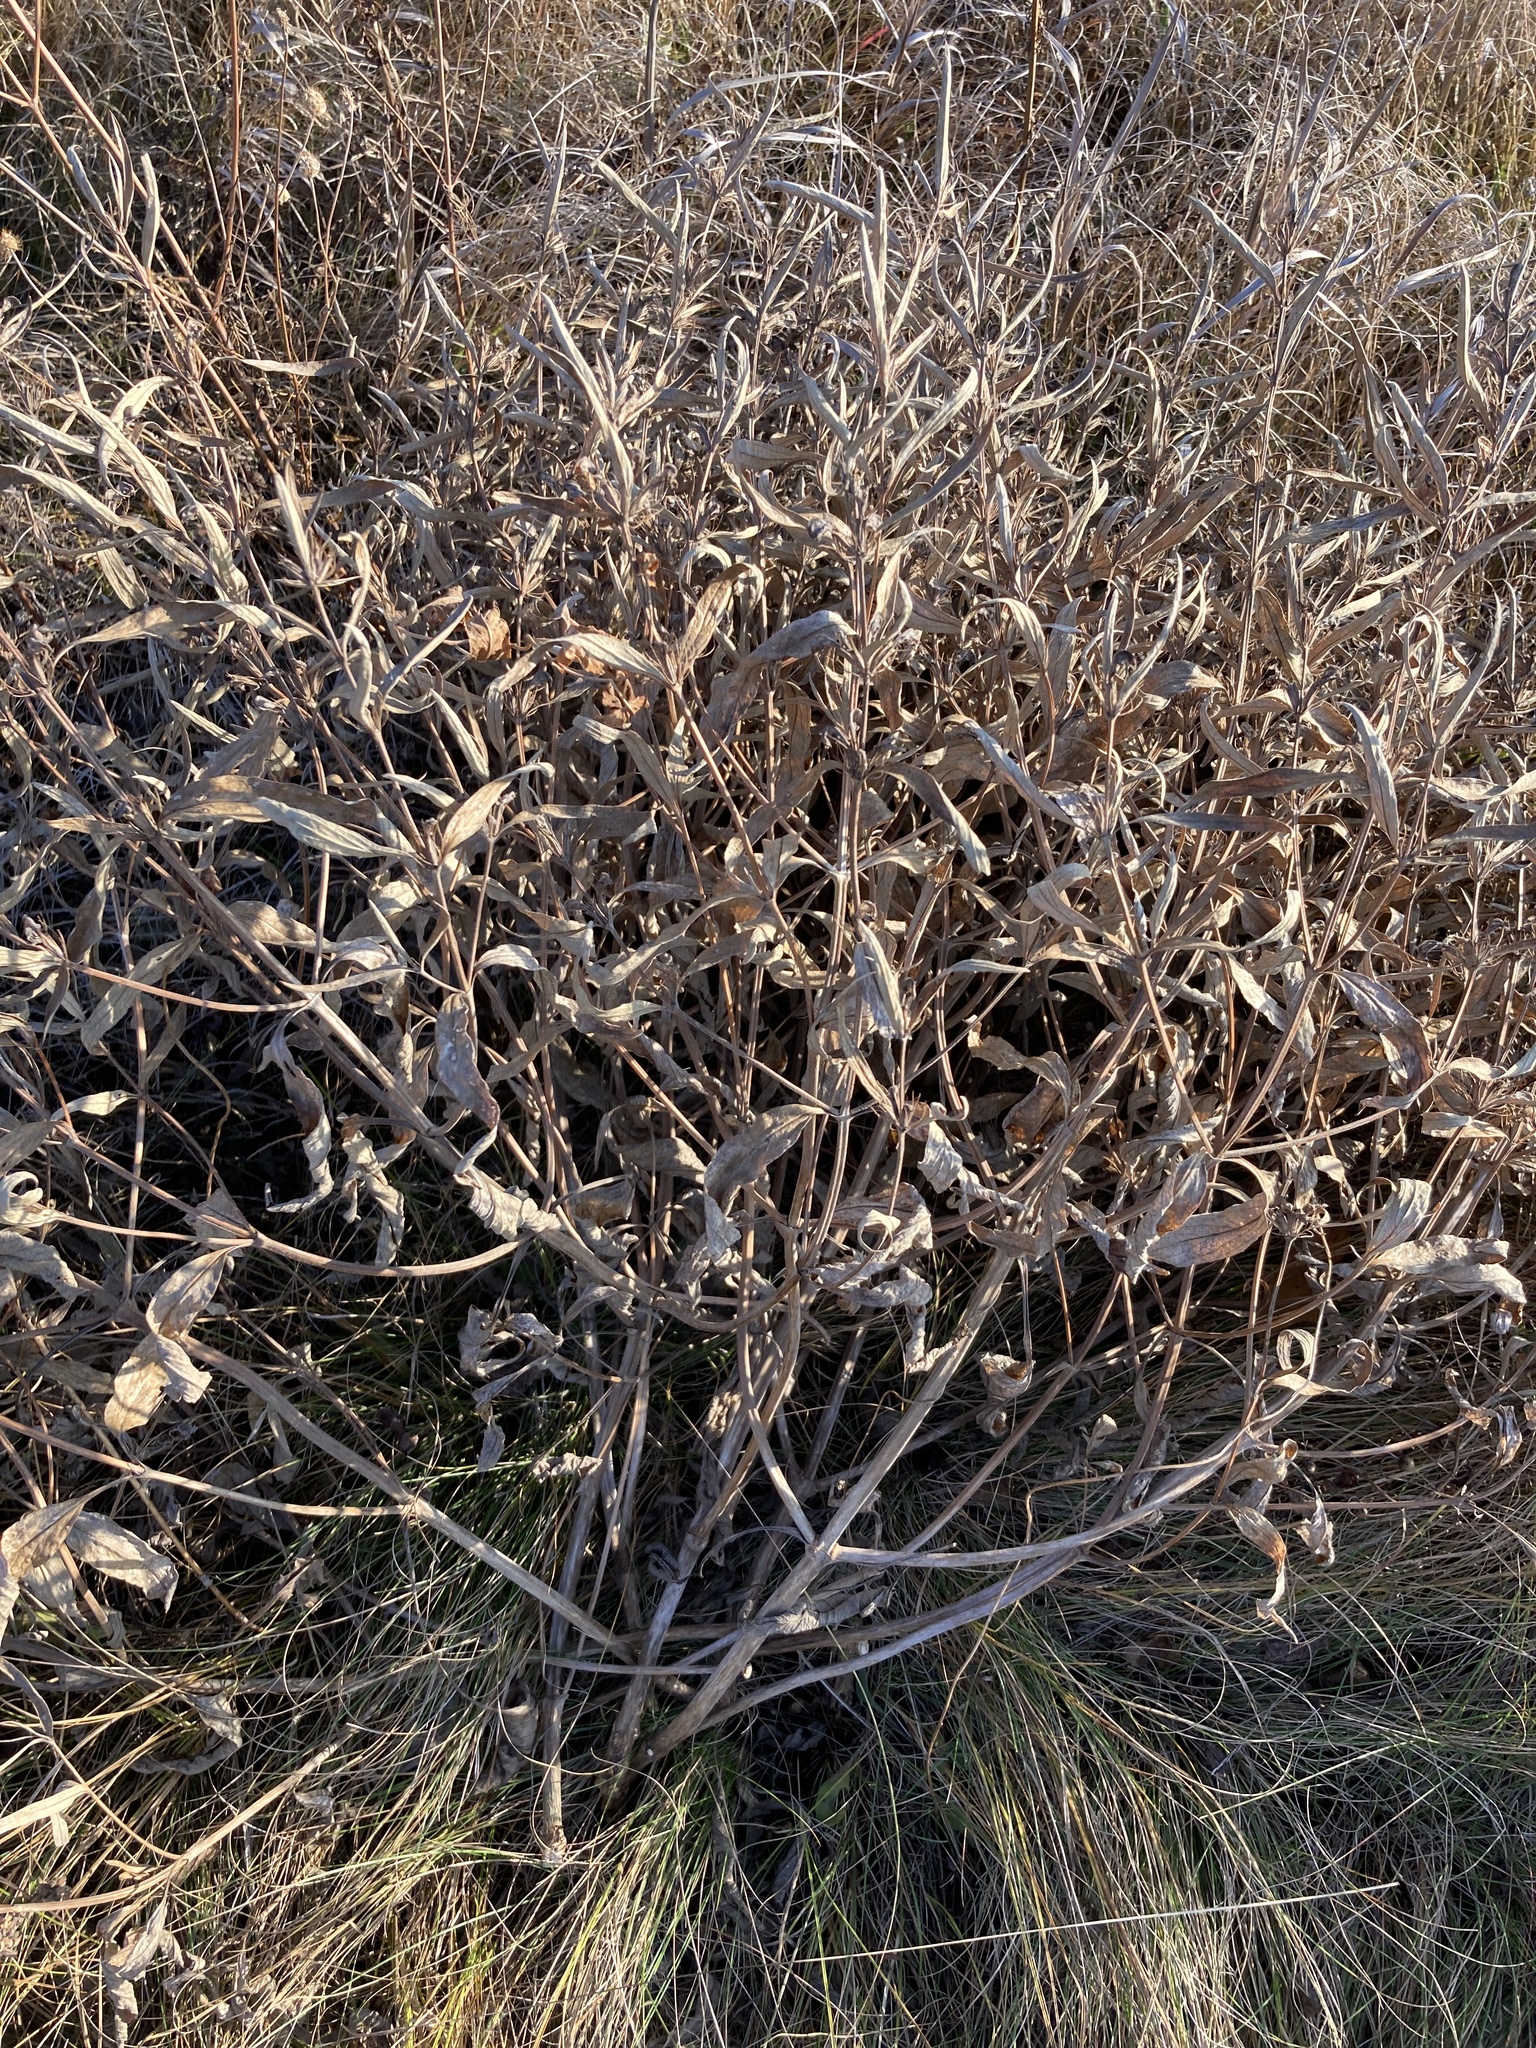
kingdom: Plantae
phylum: Tracheophyta
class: Magnoliopsida
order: Lamiales
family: Lamiaceae
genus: Phlomis
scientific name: Phlomis herba-venti
